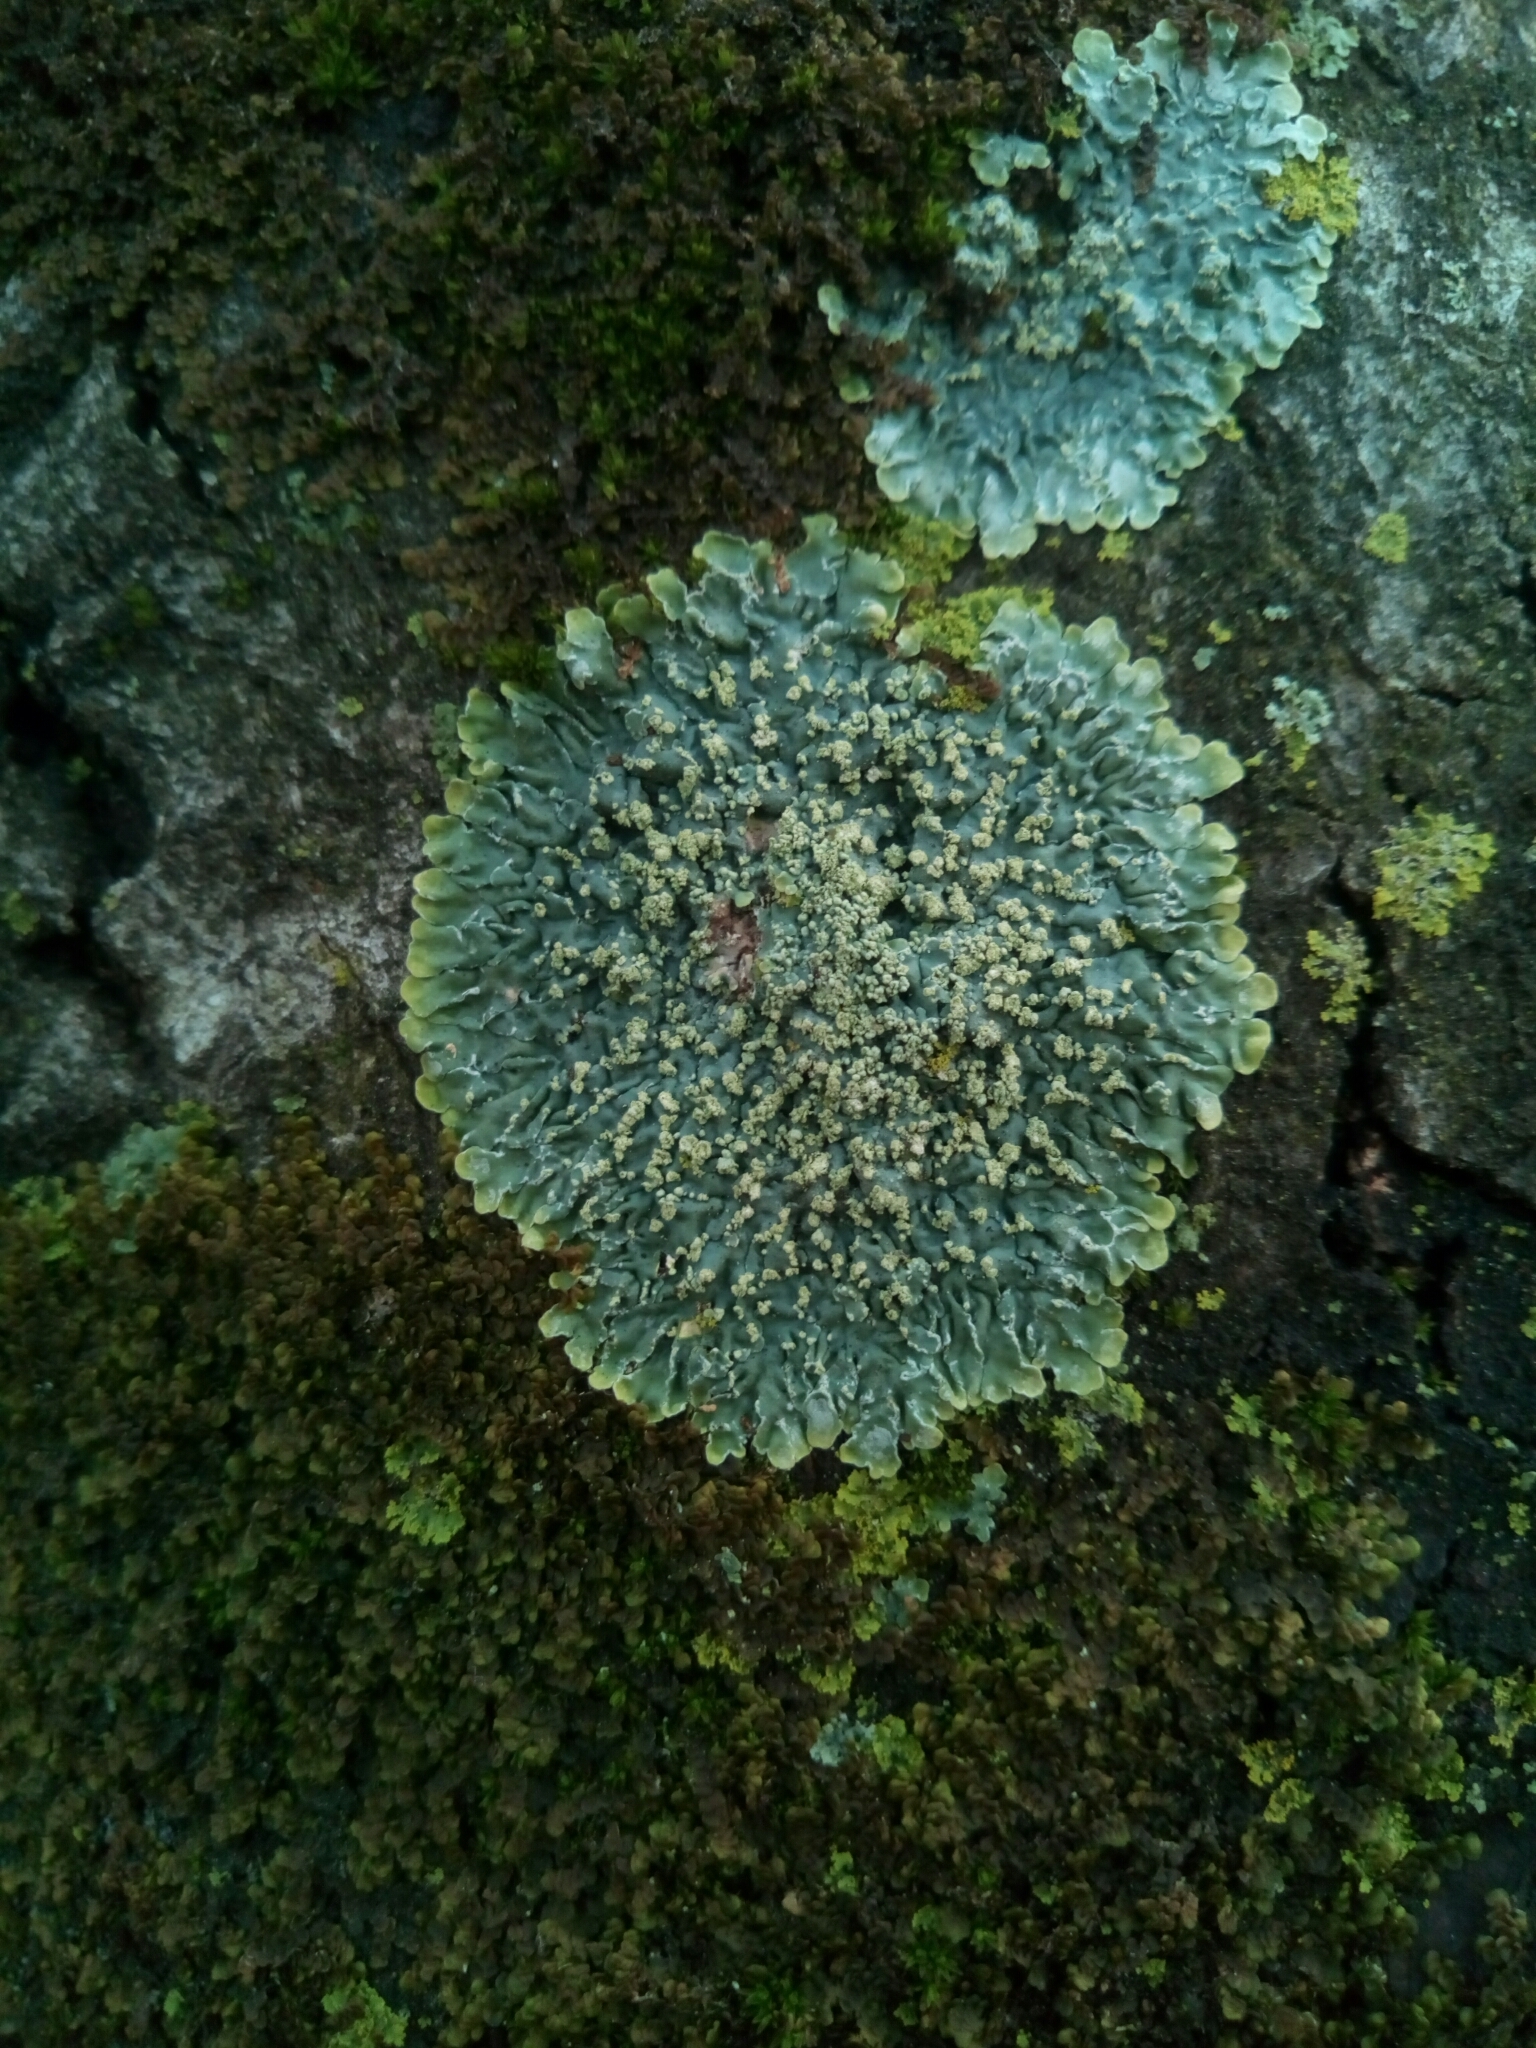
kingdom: Fungi
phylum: Ascomycota
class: Lecanoromycetes
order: Caliciales
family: Caliciaceae
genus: Pyxine
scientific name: Pyxine sorediata
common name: Mustard lichen
